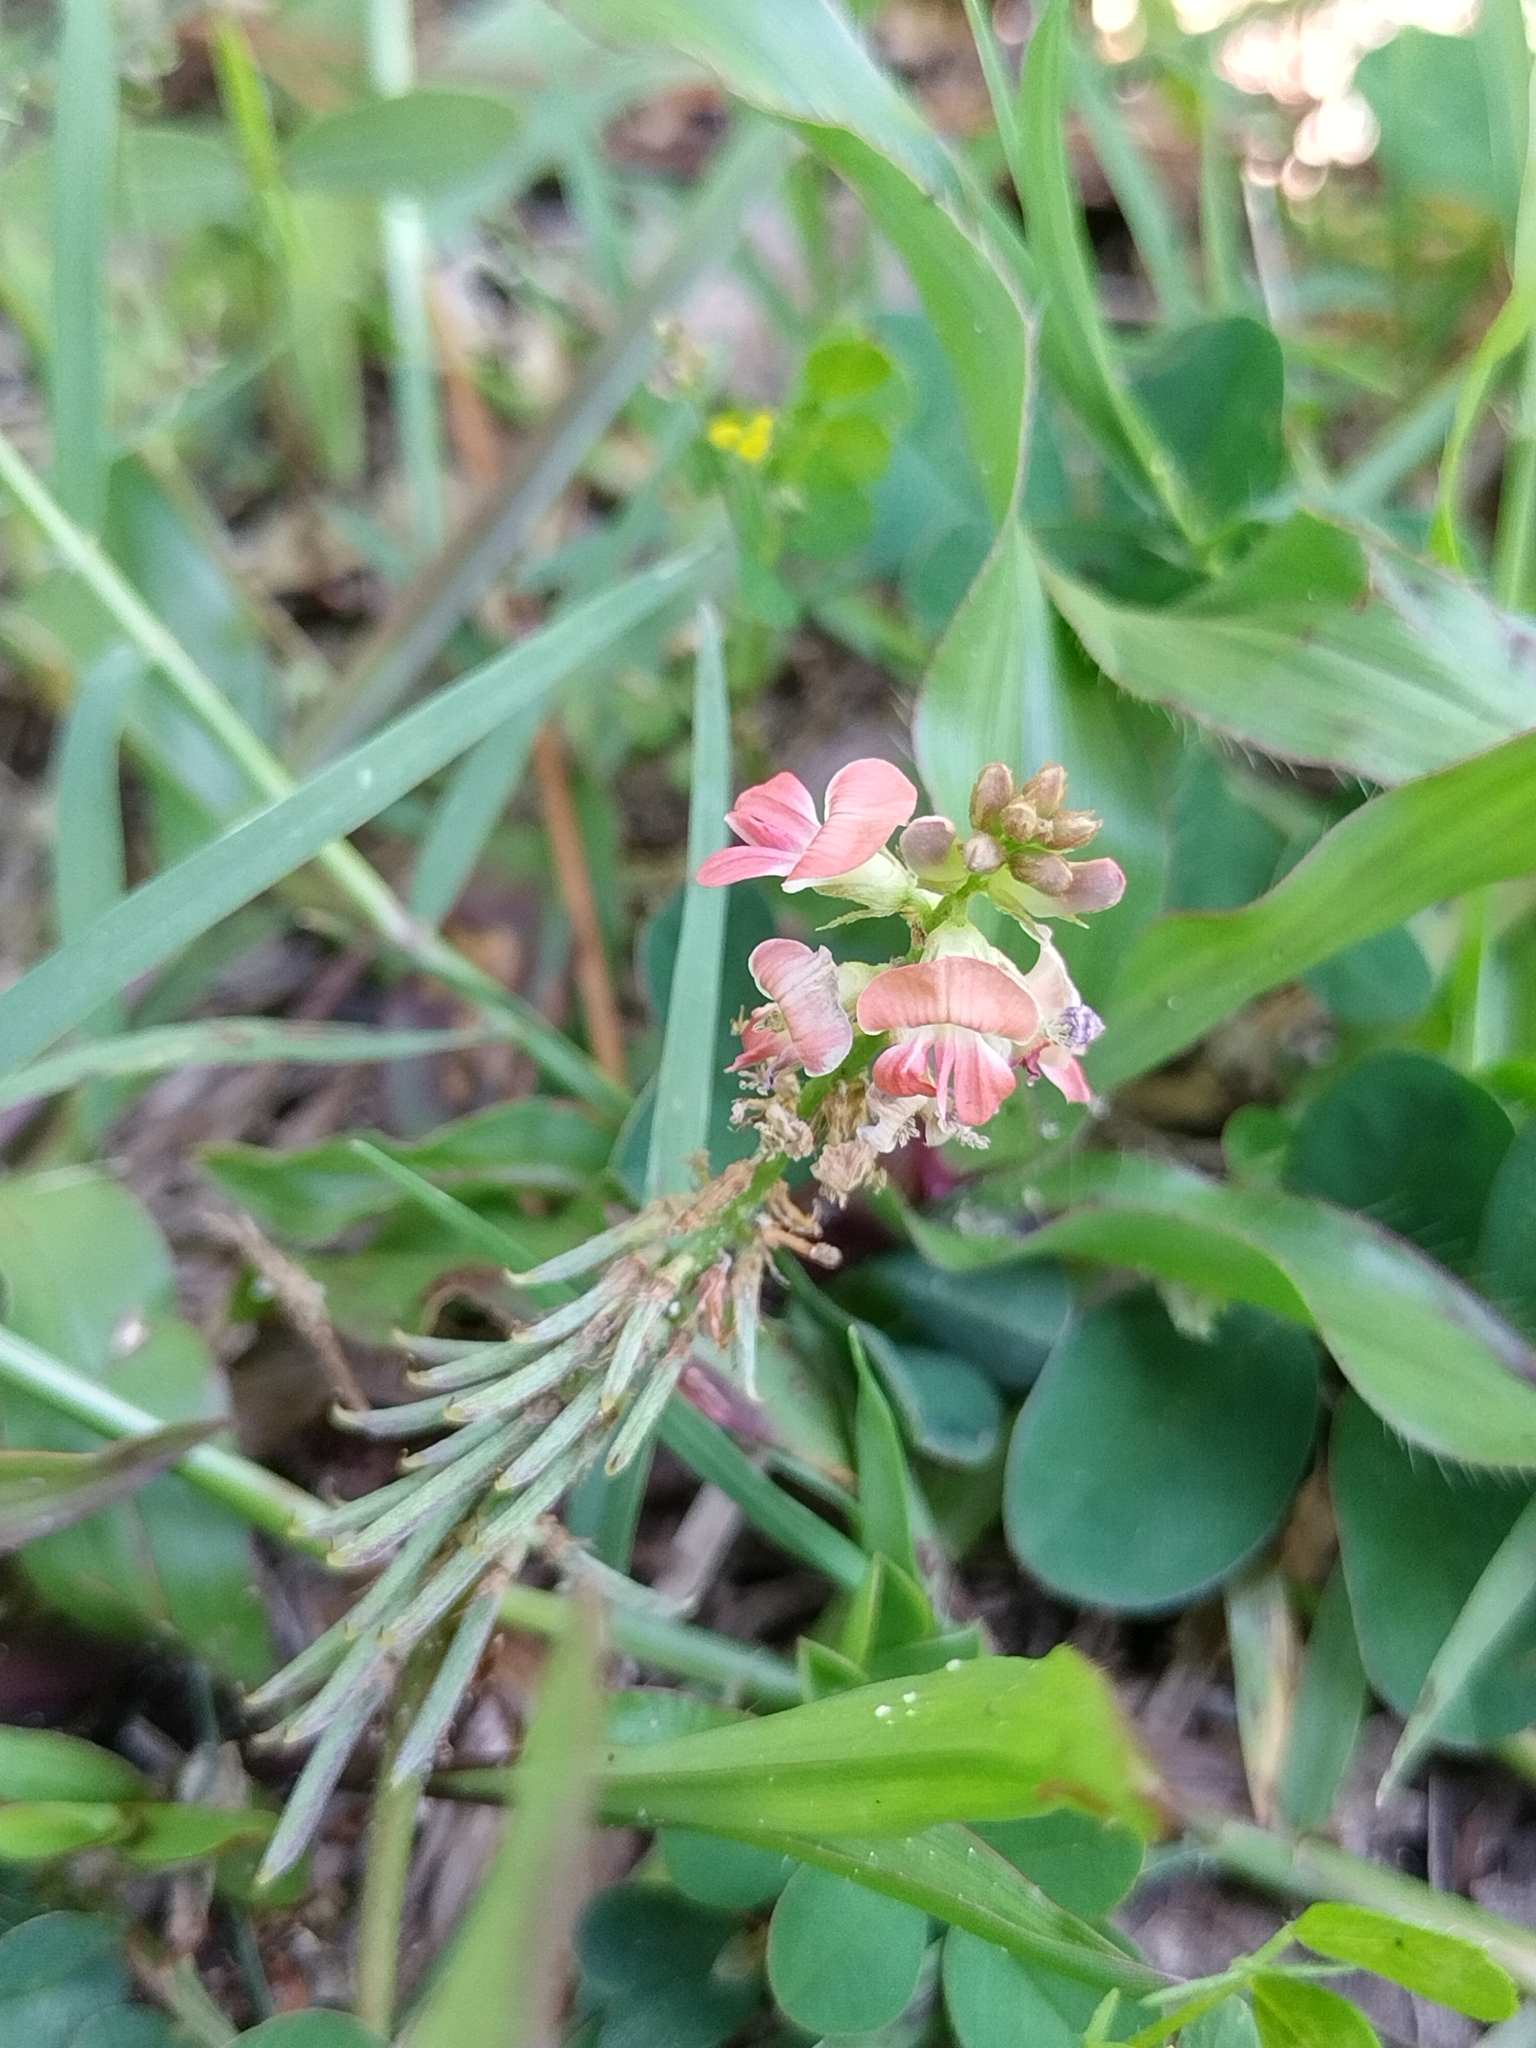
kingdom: Plantae
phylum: Tracheophyta
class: Magnoliopsida
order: Fabales
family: Fabaceae
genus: Indigofera
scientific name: Indigofera spicata
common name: Creeping indigo
